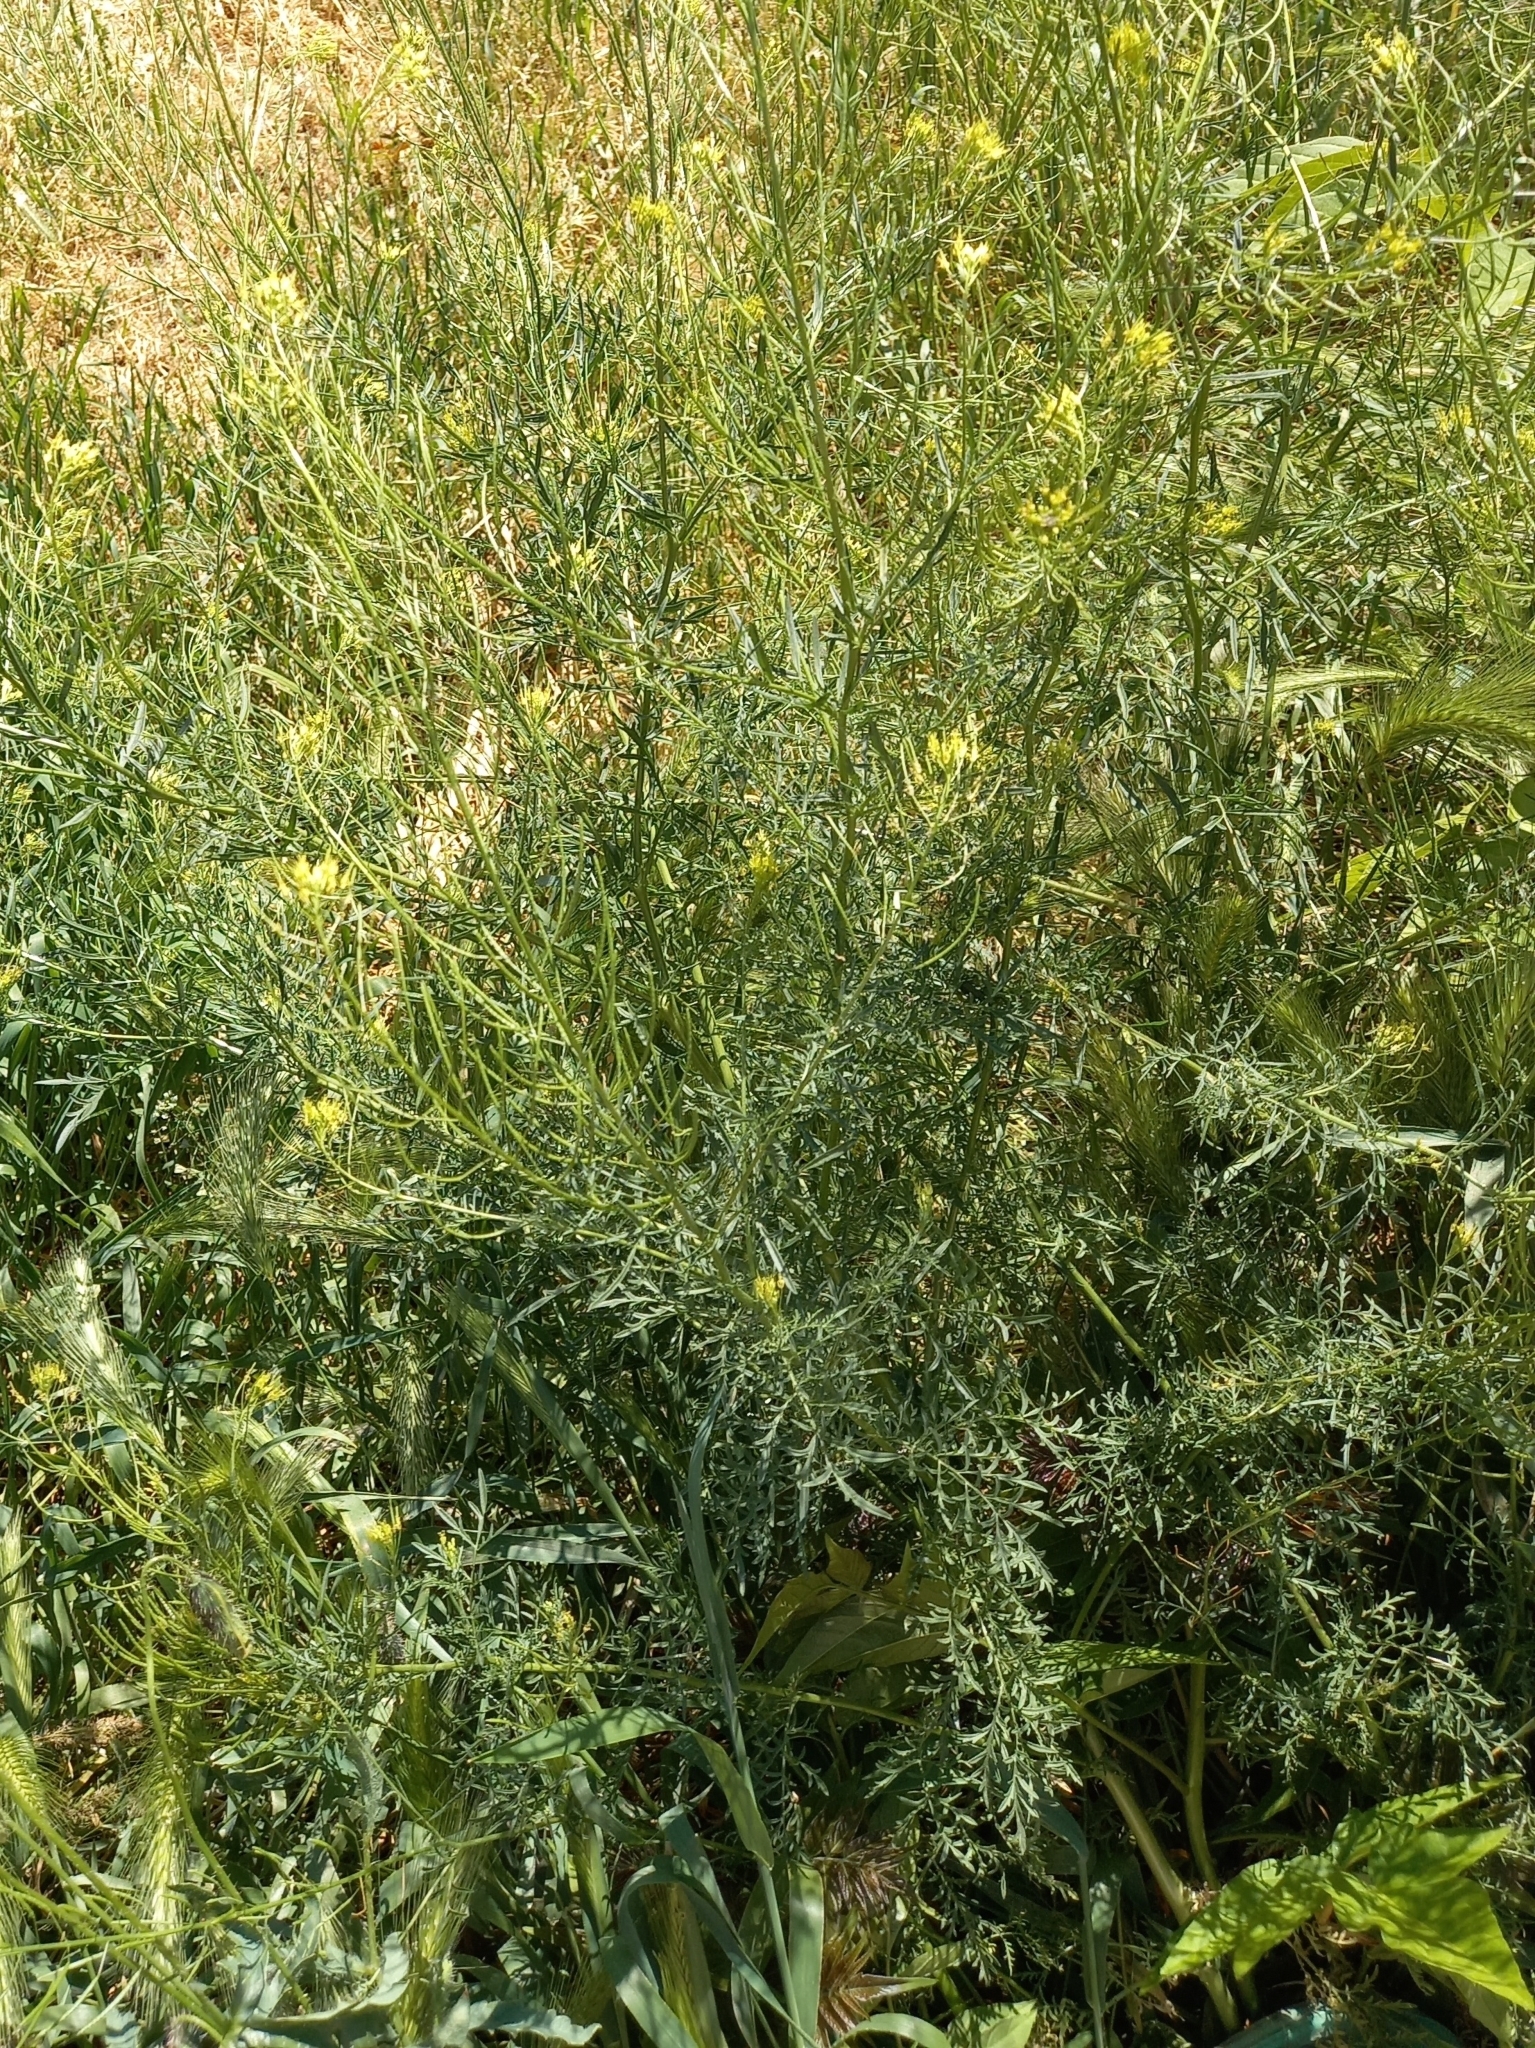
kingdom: Plantae
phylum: Tracheophyta
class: Magnoliopsida
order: Brassicales
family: Brassicaceae
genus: Descurainia
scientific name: Descurainia sophia
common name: Flixweed
